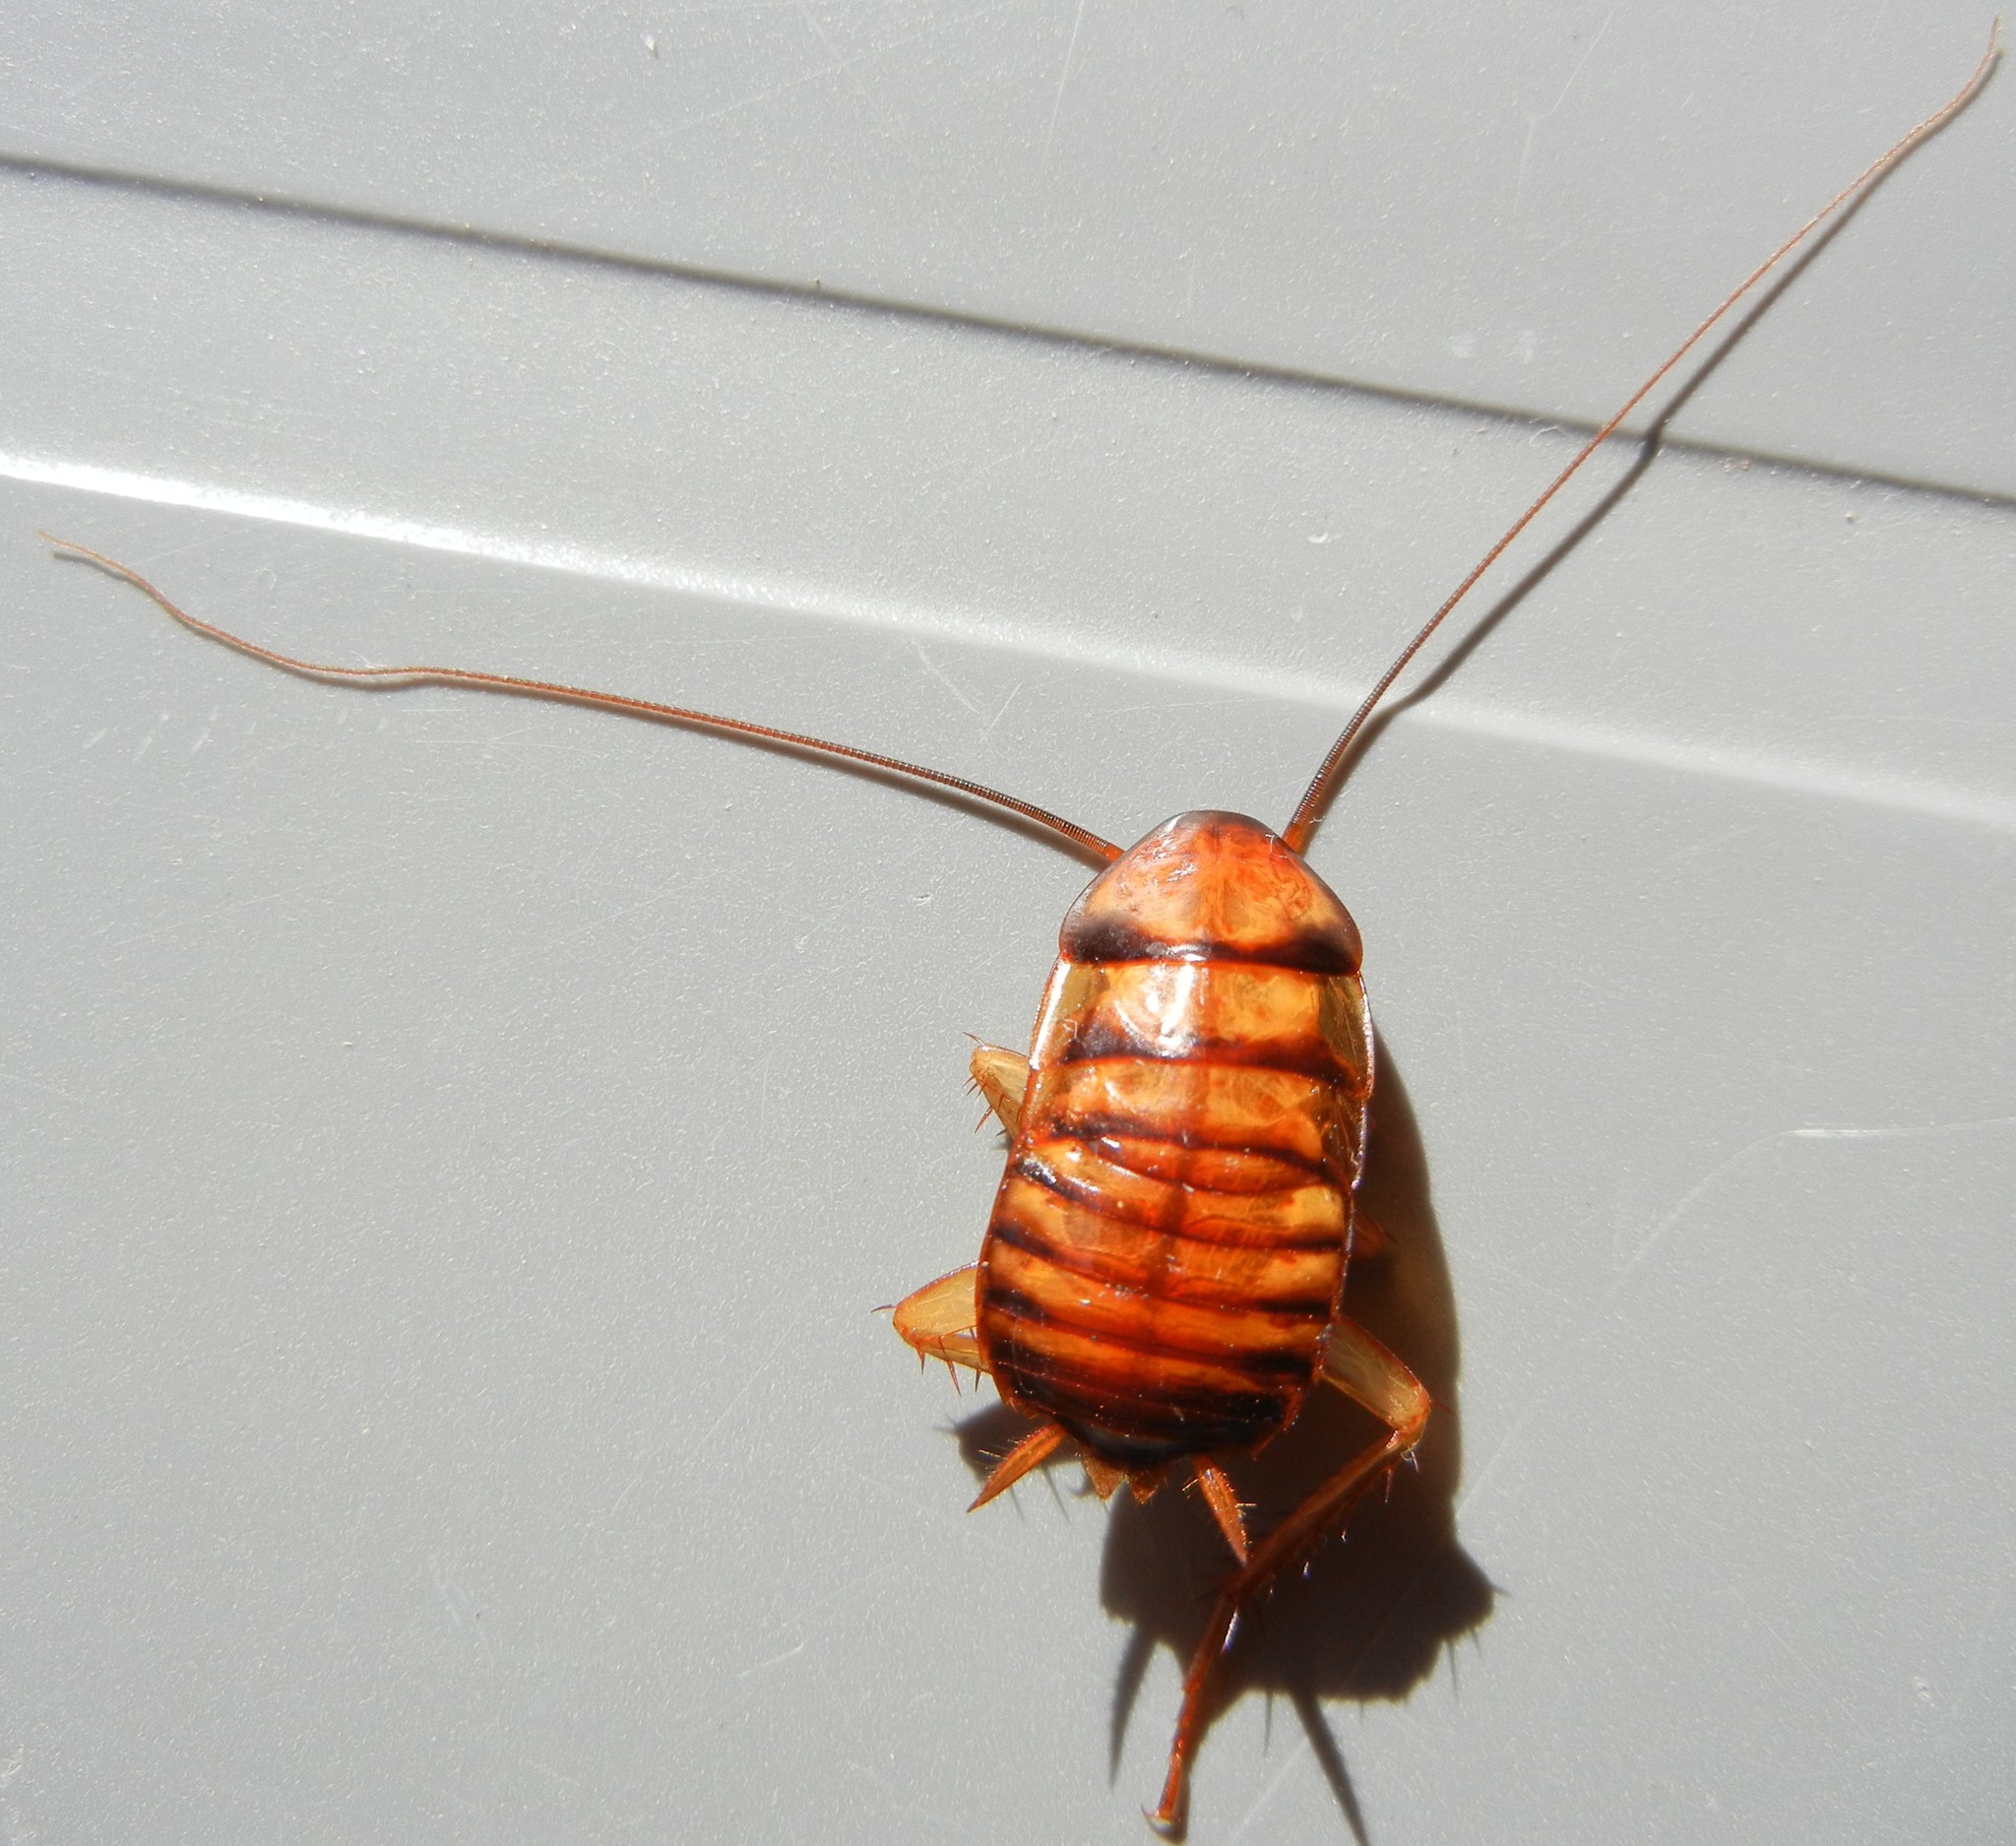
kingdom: Animalia
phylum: Arthropoda
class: Insecta
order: Blattodea
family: Blattidae
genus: Periplaneta
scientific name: Periplaneta americana
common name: American cockroach
